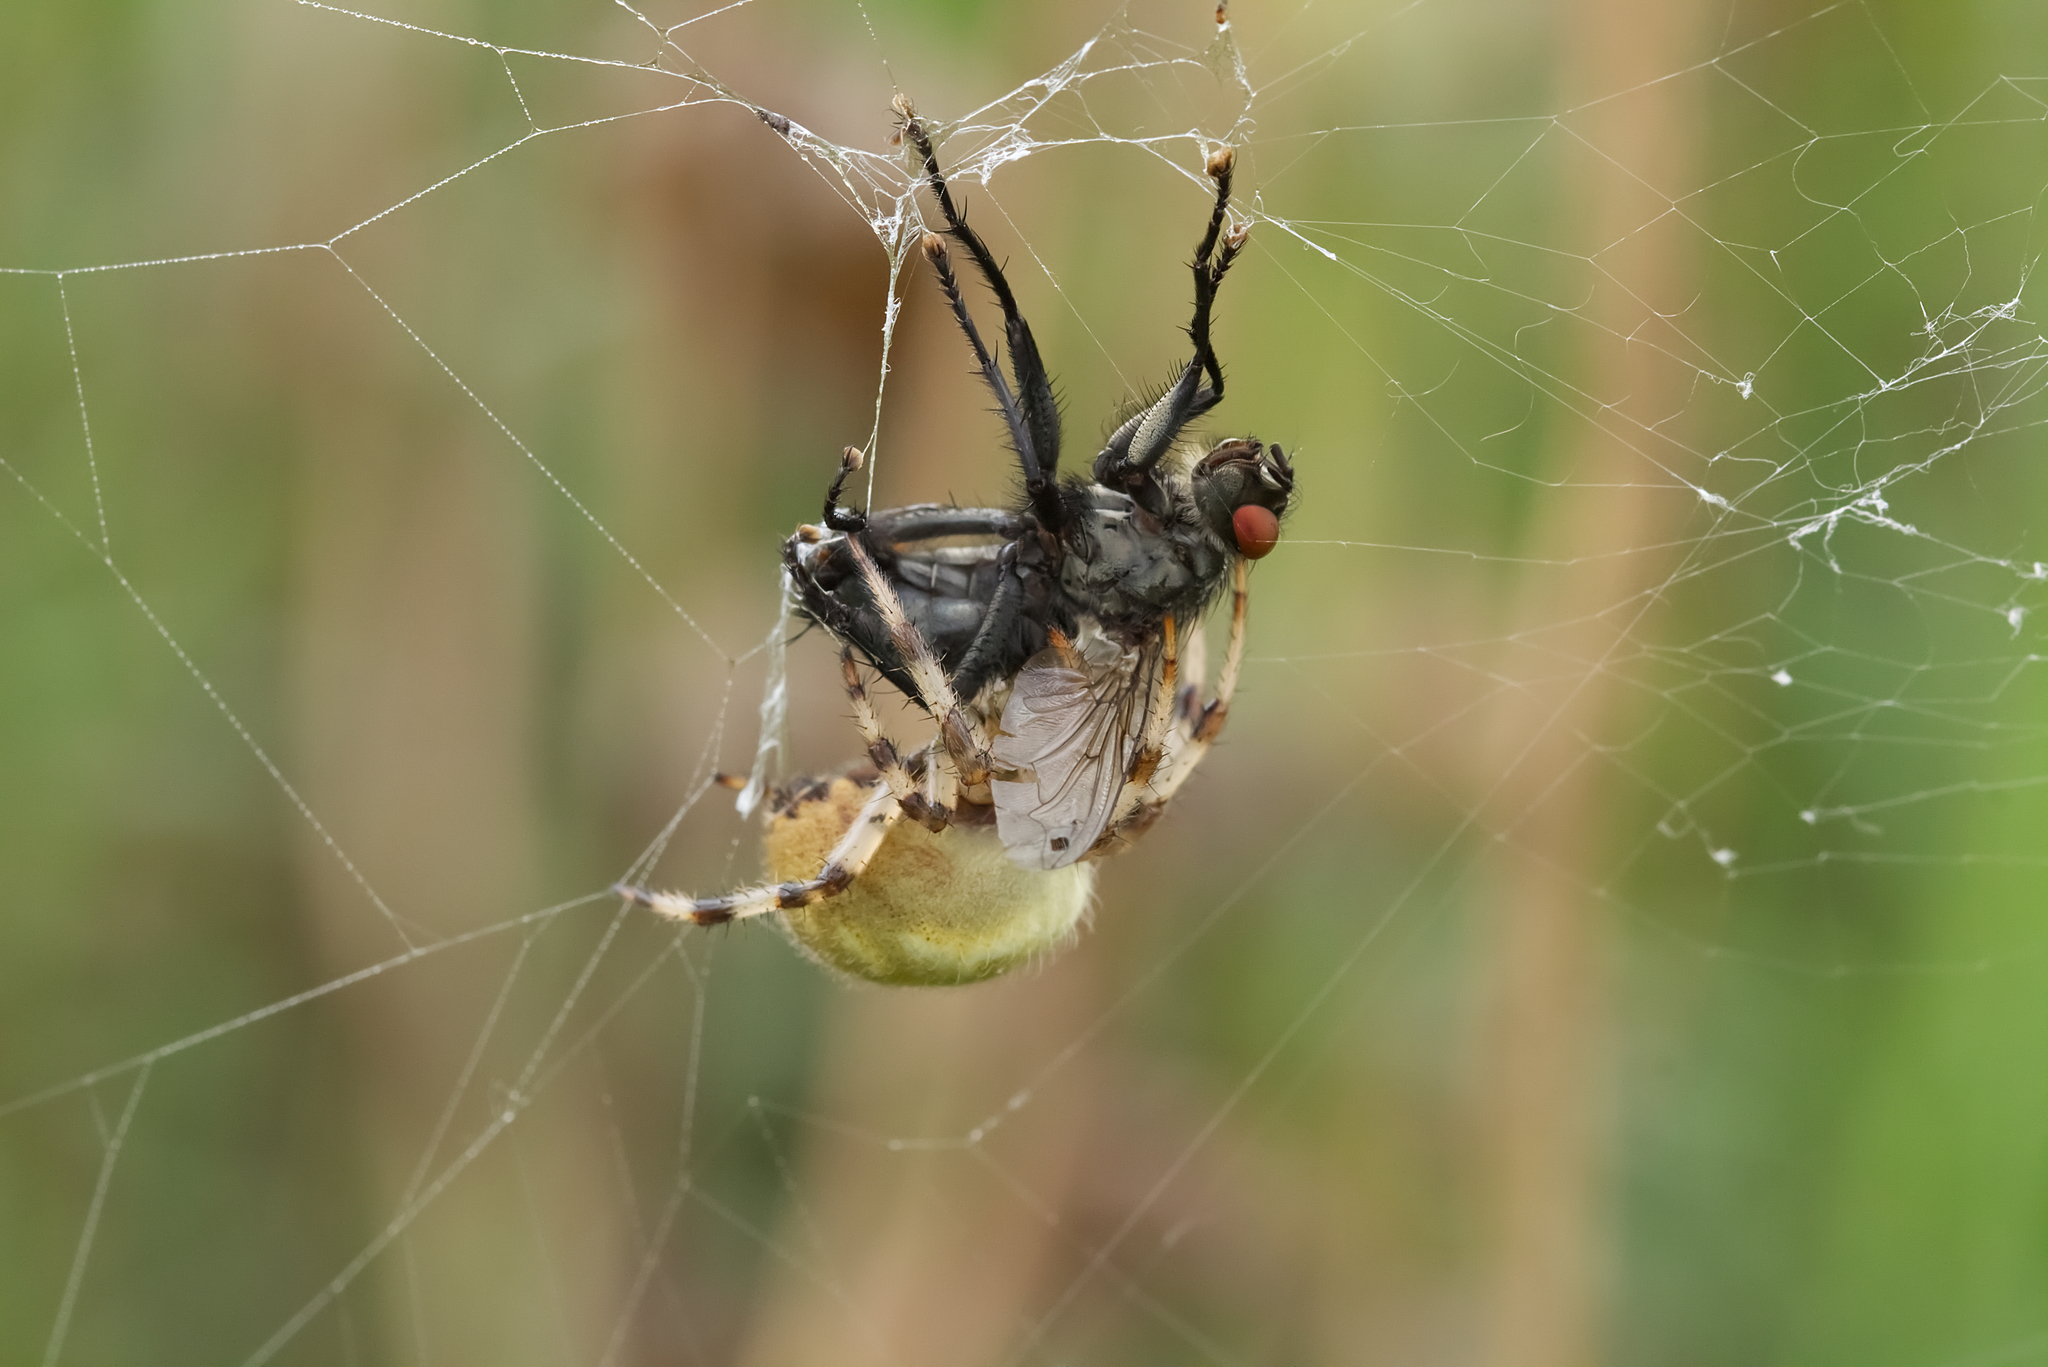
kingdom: Animalia
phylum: Arthropoda
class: Arachnida
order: Araneae
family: Araneidae
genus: Araneus
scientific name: Araneus quadratus
